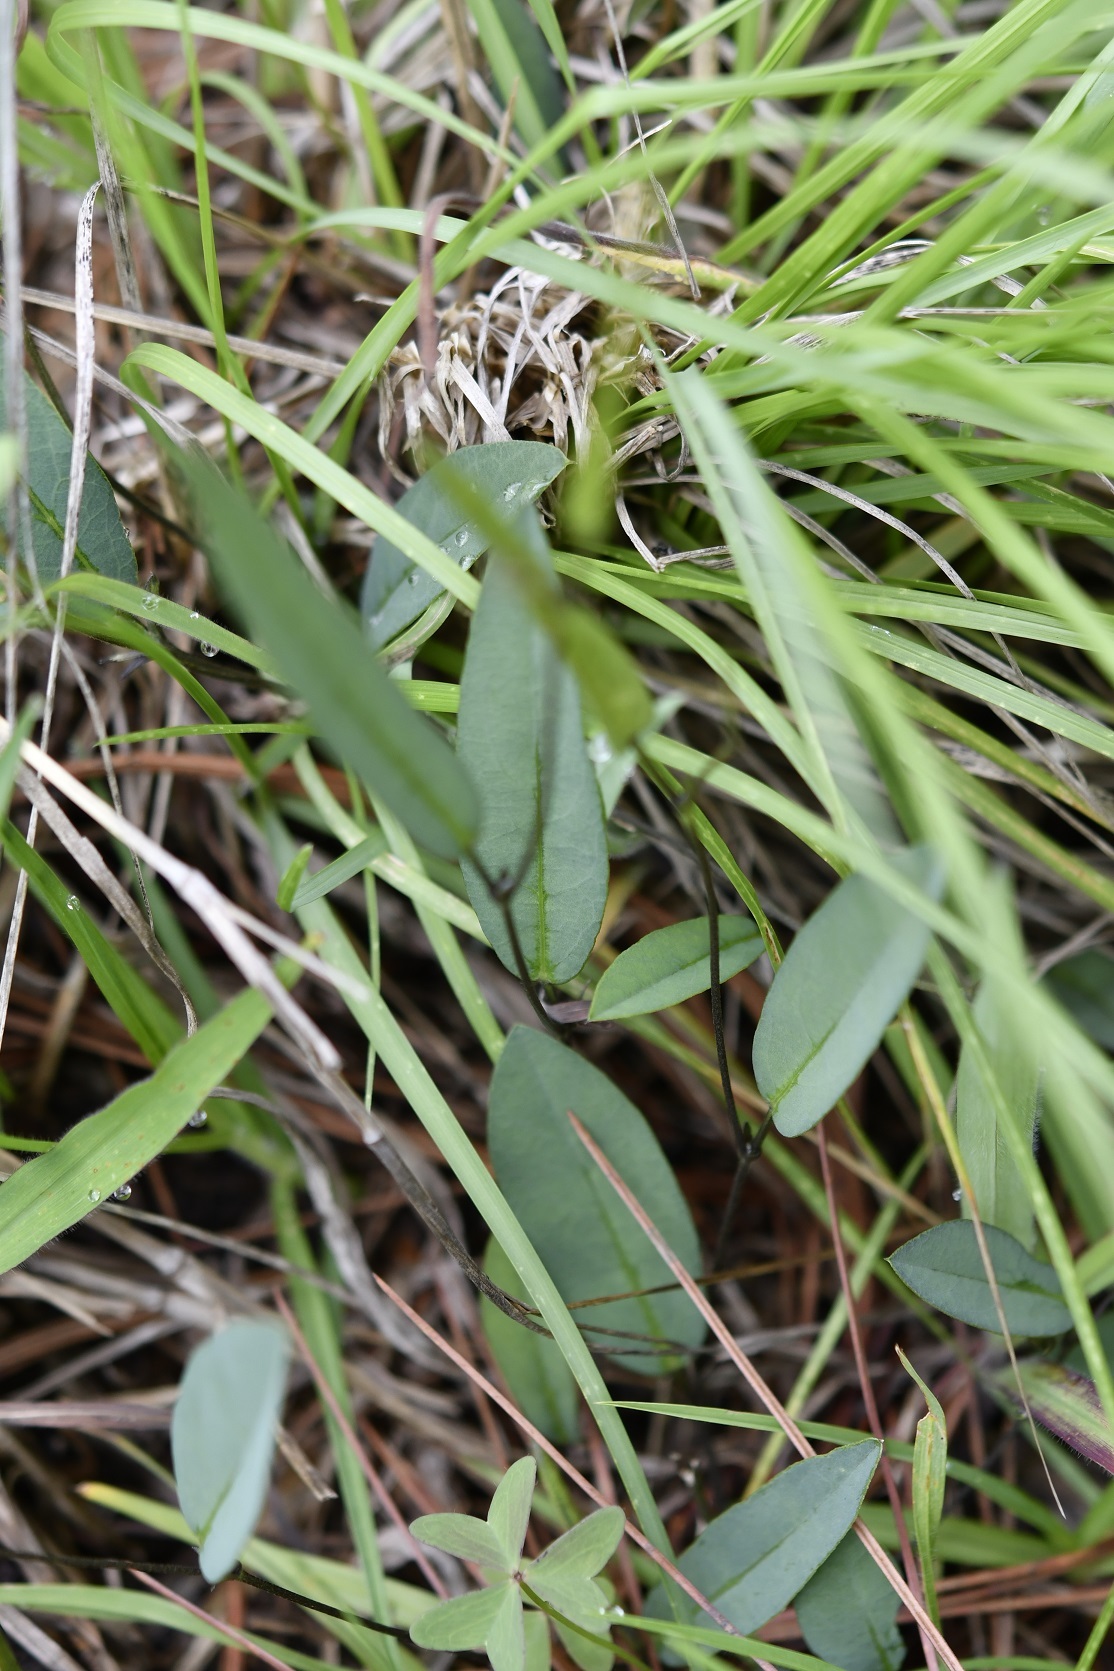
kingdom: Plantae
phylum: Tracheophyta
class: Magnoliopsida
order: Fabales
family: Fabaceae
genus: Cologania
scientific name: Cologania procumbens
